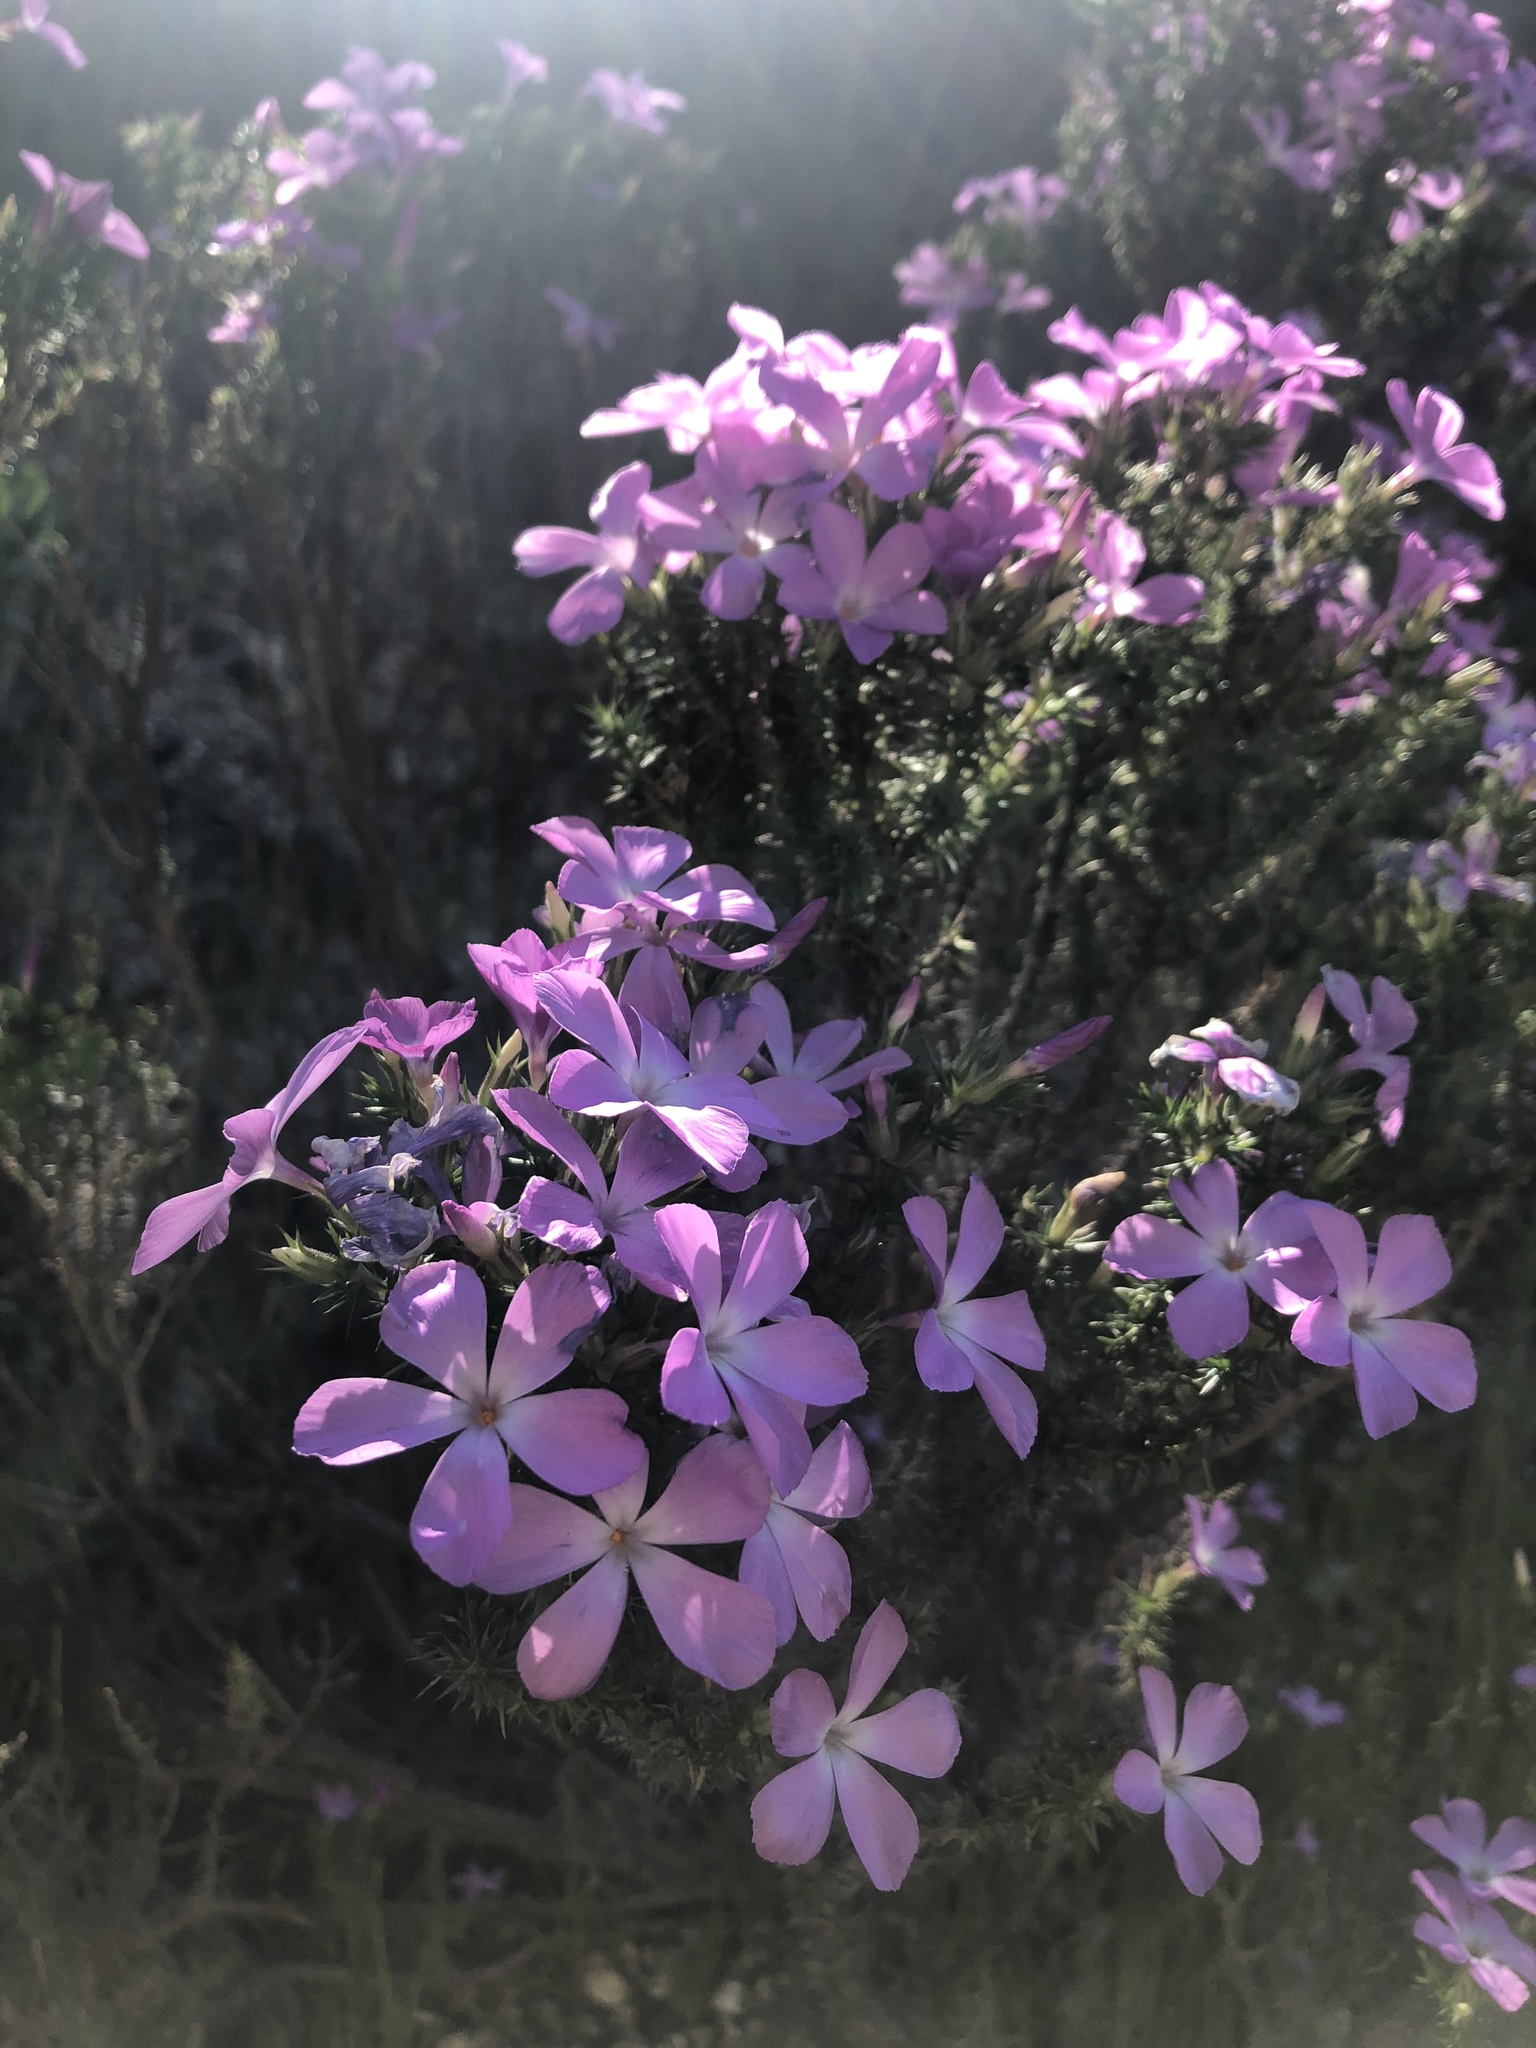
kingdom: Plantae
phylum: Tracheophyta
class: Magnoliopsida
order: Ericales
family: Polemoniaceae
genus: Linanthus
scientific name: Linanthus californicus
